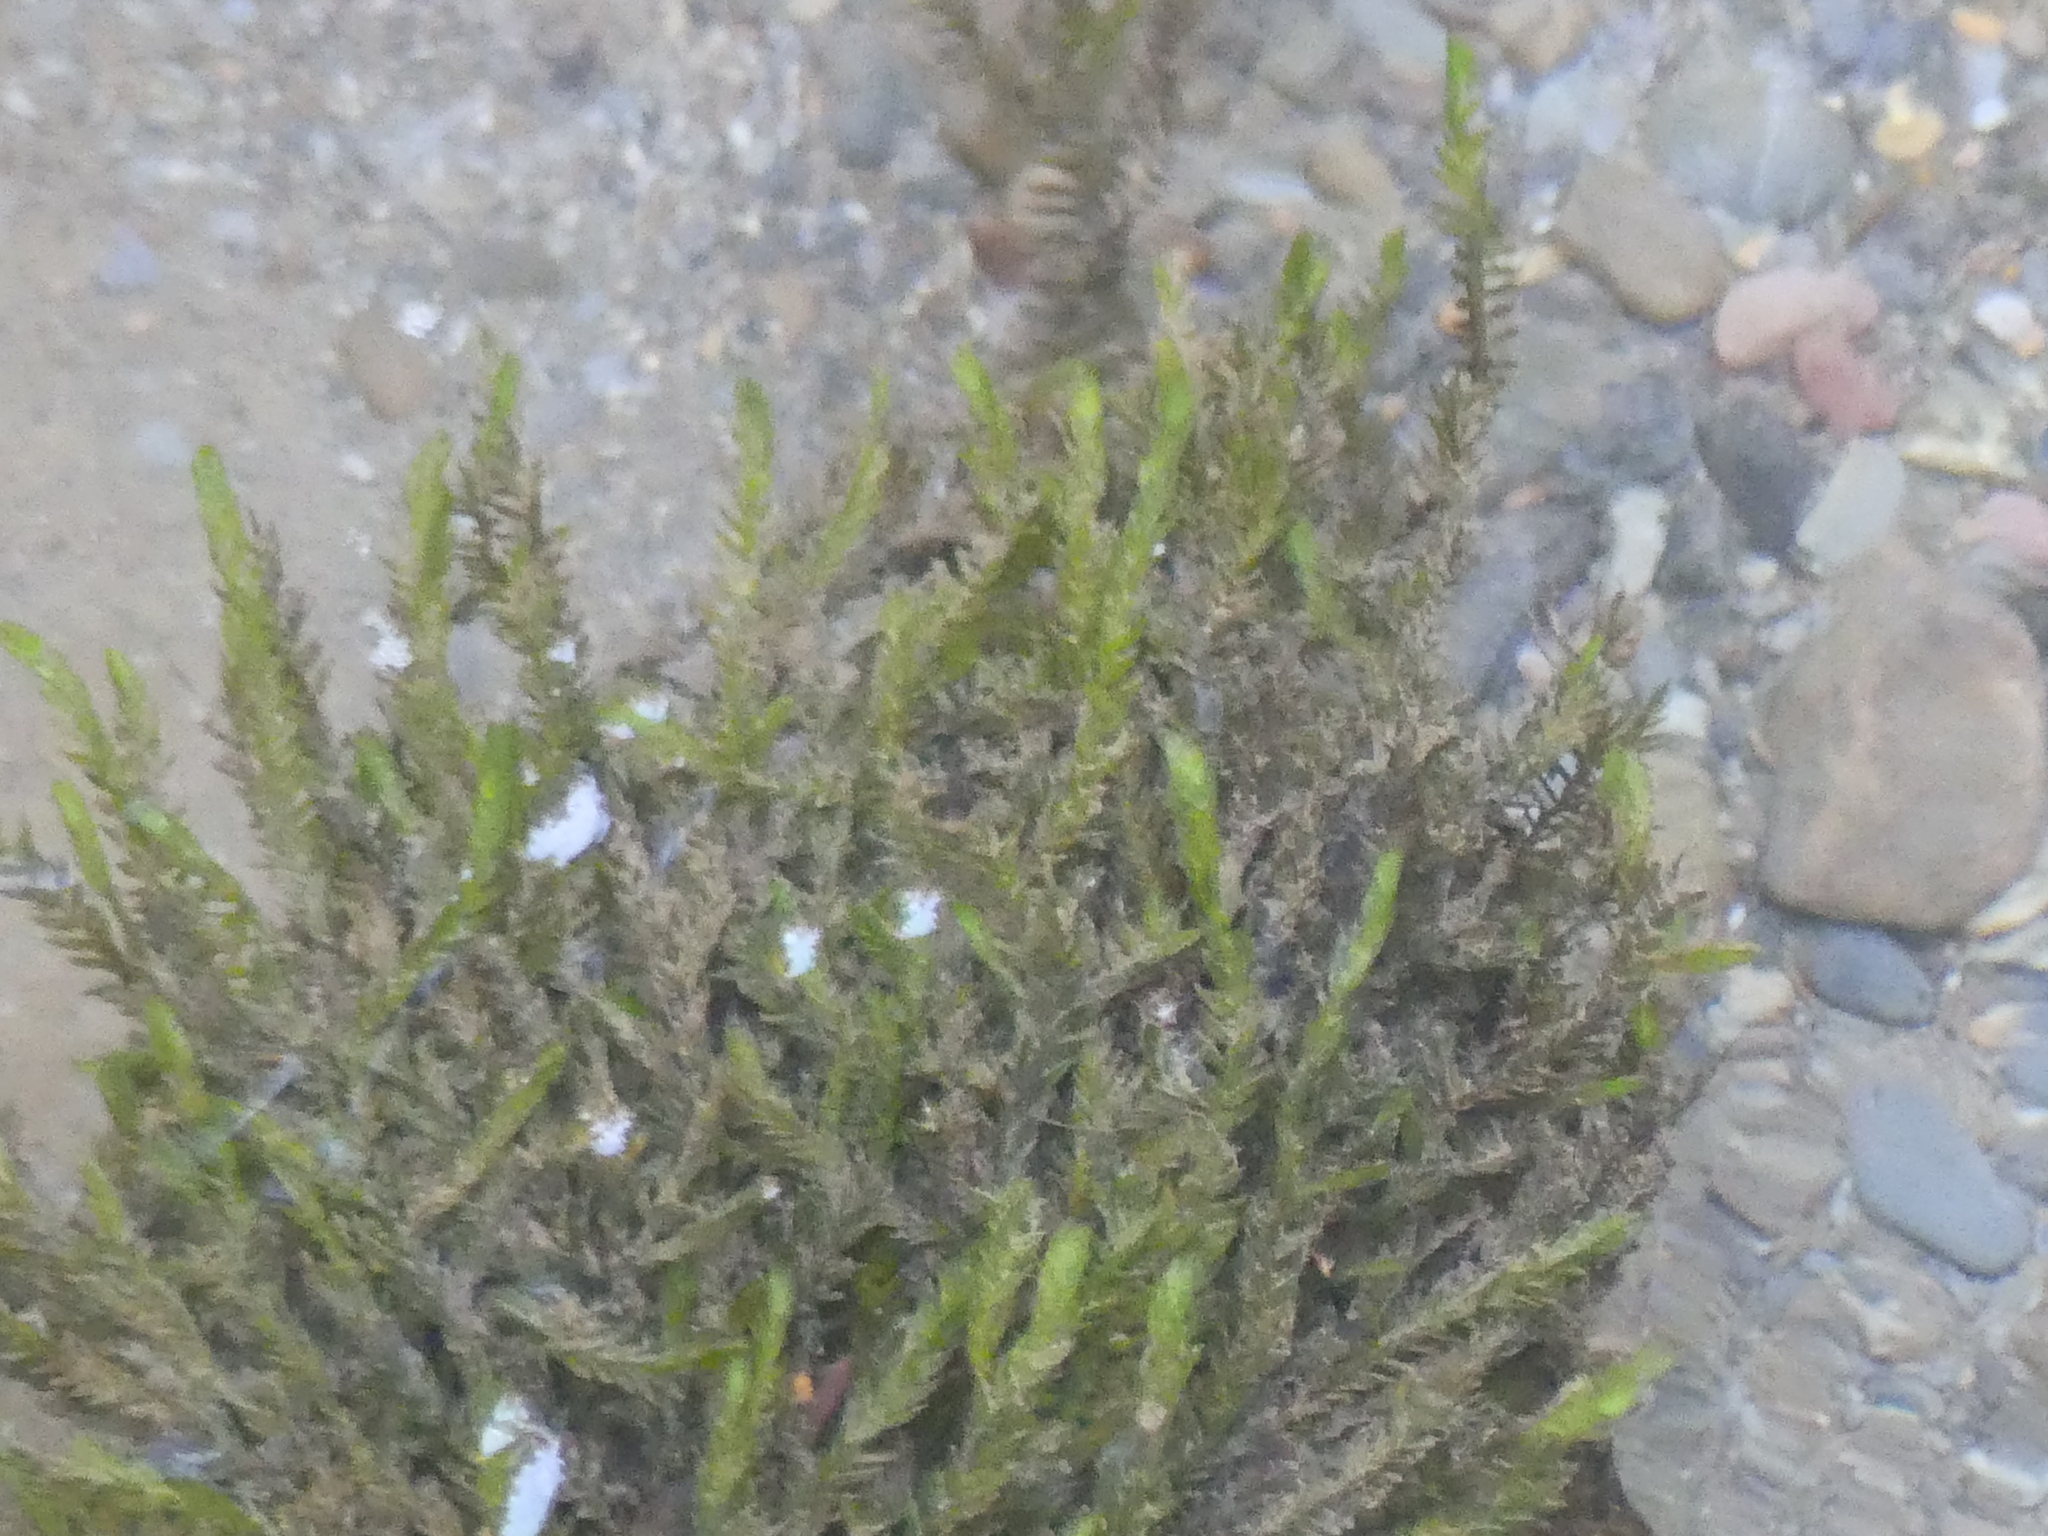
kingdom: Plantae
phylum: Bryophyta
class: Bryopsida
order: Hypnales
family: Fontinalaceae
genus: Fontinalis
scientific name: Fontinalis antipyretica
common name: Greater water-moss
